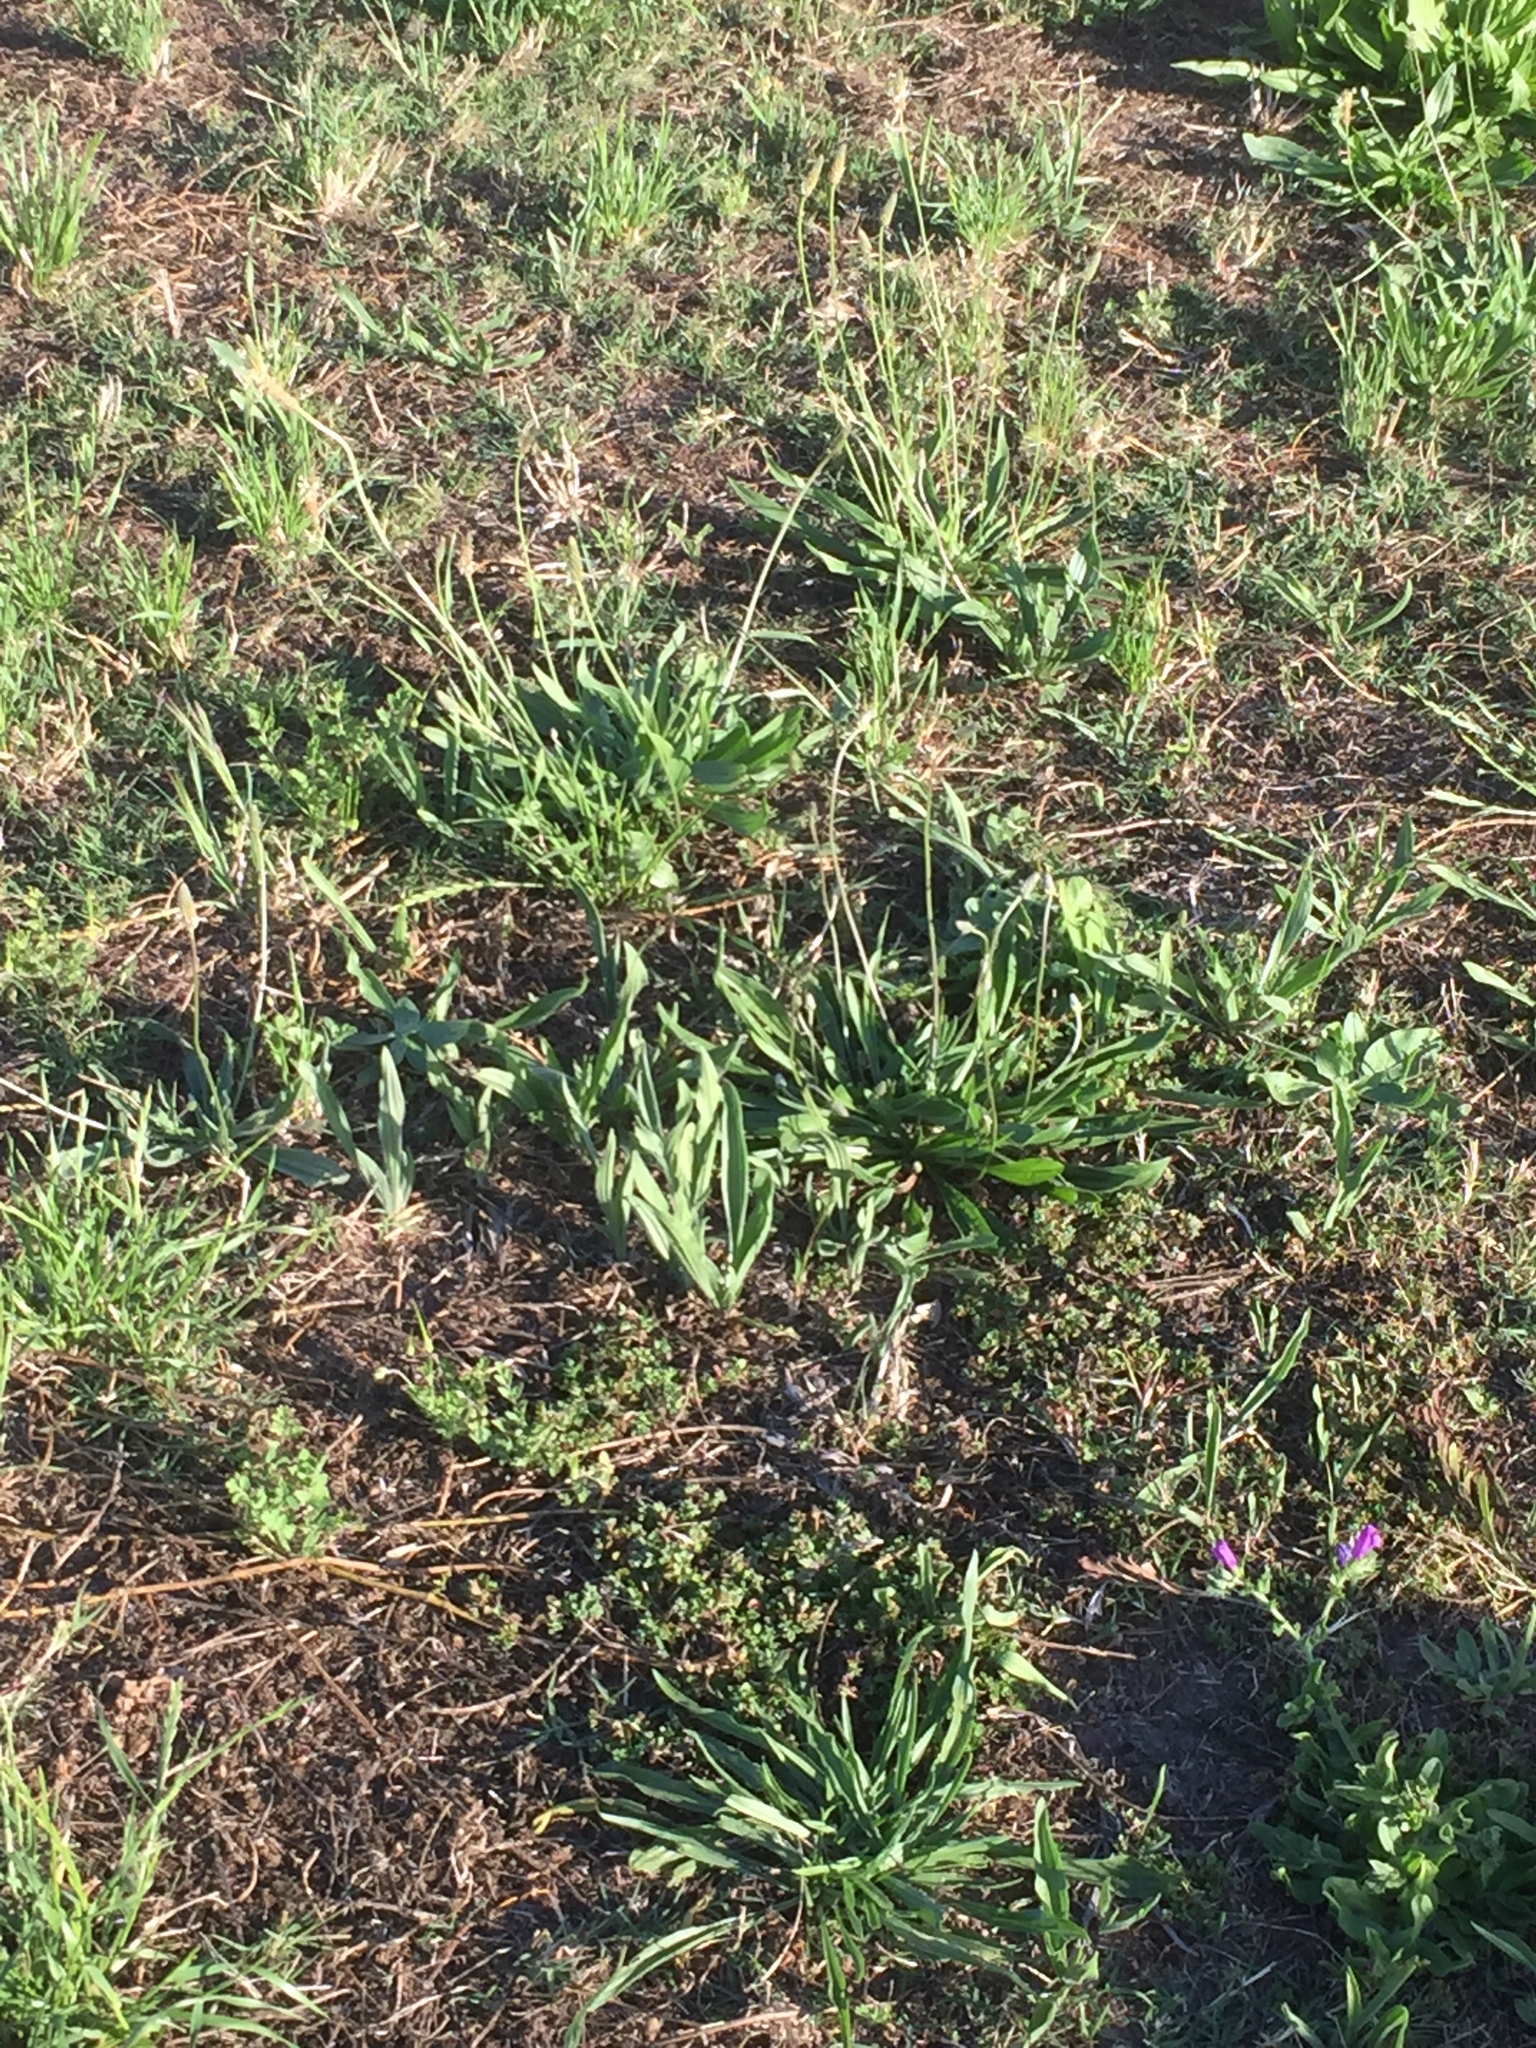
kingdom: Plantae
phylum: Tracheophyta
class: Magnoliopsida
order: Lamiales
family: Plantaginaceae
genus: Plantago
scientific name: Plantago lanceolata
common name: Ribwort plantain
